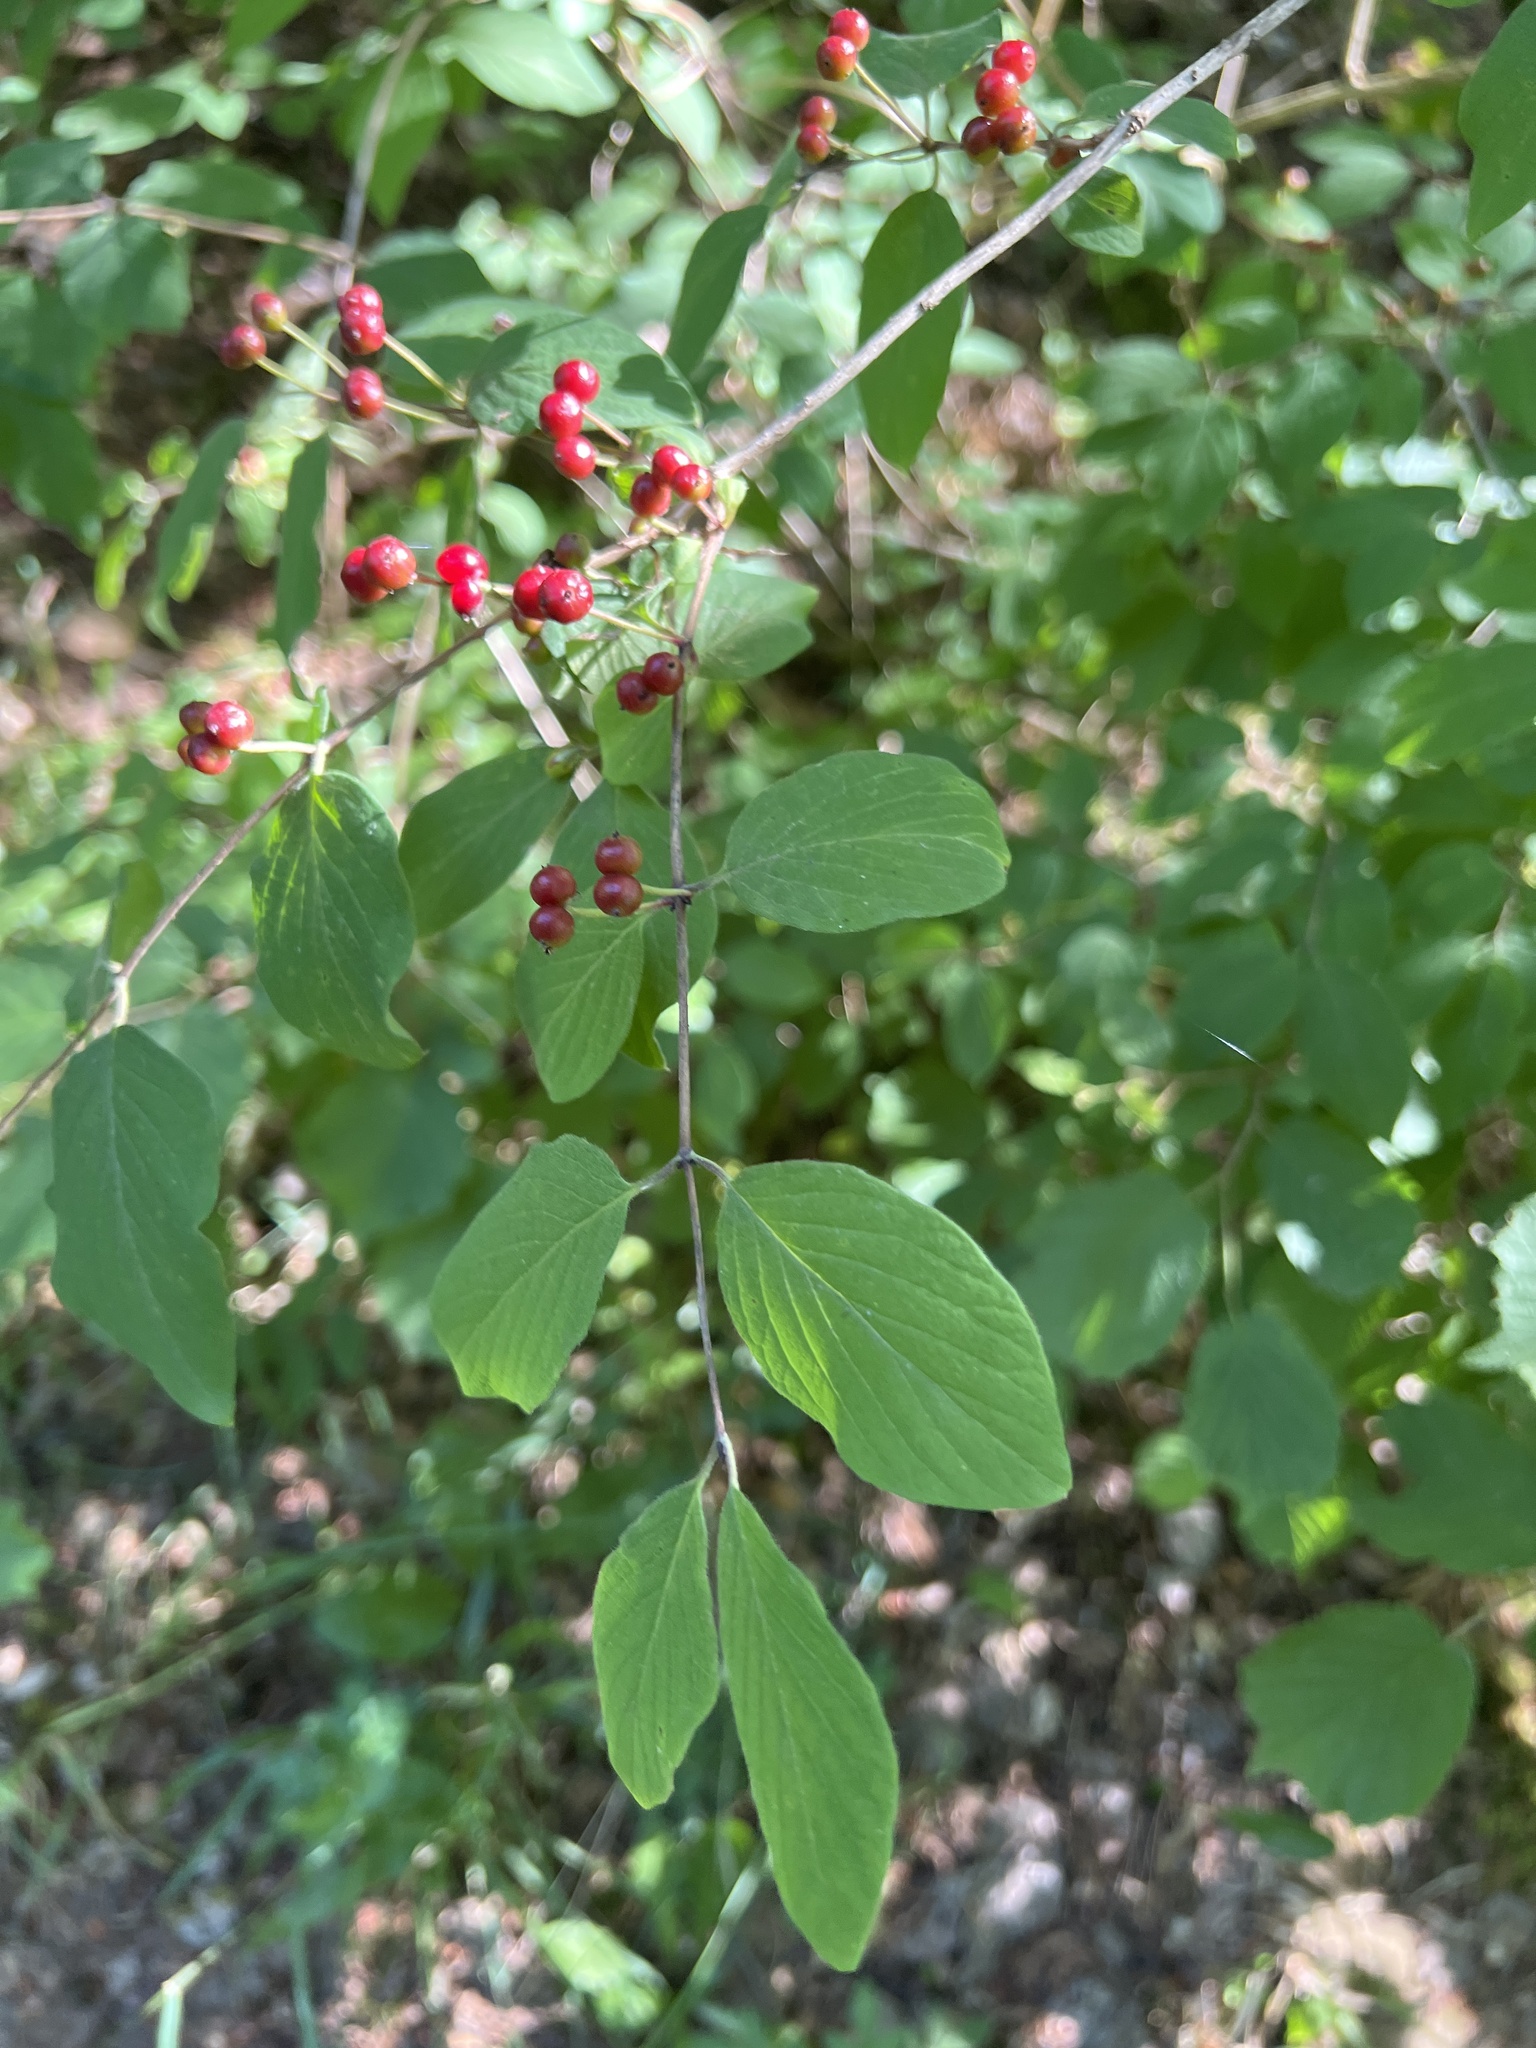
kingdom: Plantae
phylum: Tracheophyta
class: Magnoliopsida
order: Dipsacales
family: Caprifoliaceae
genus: Lonicera
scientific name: Lonicera xylosteum
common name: Fly honeysuckle
